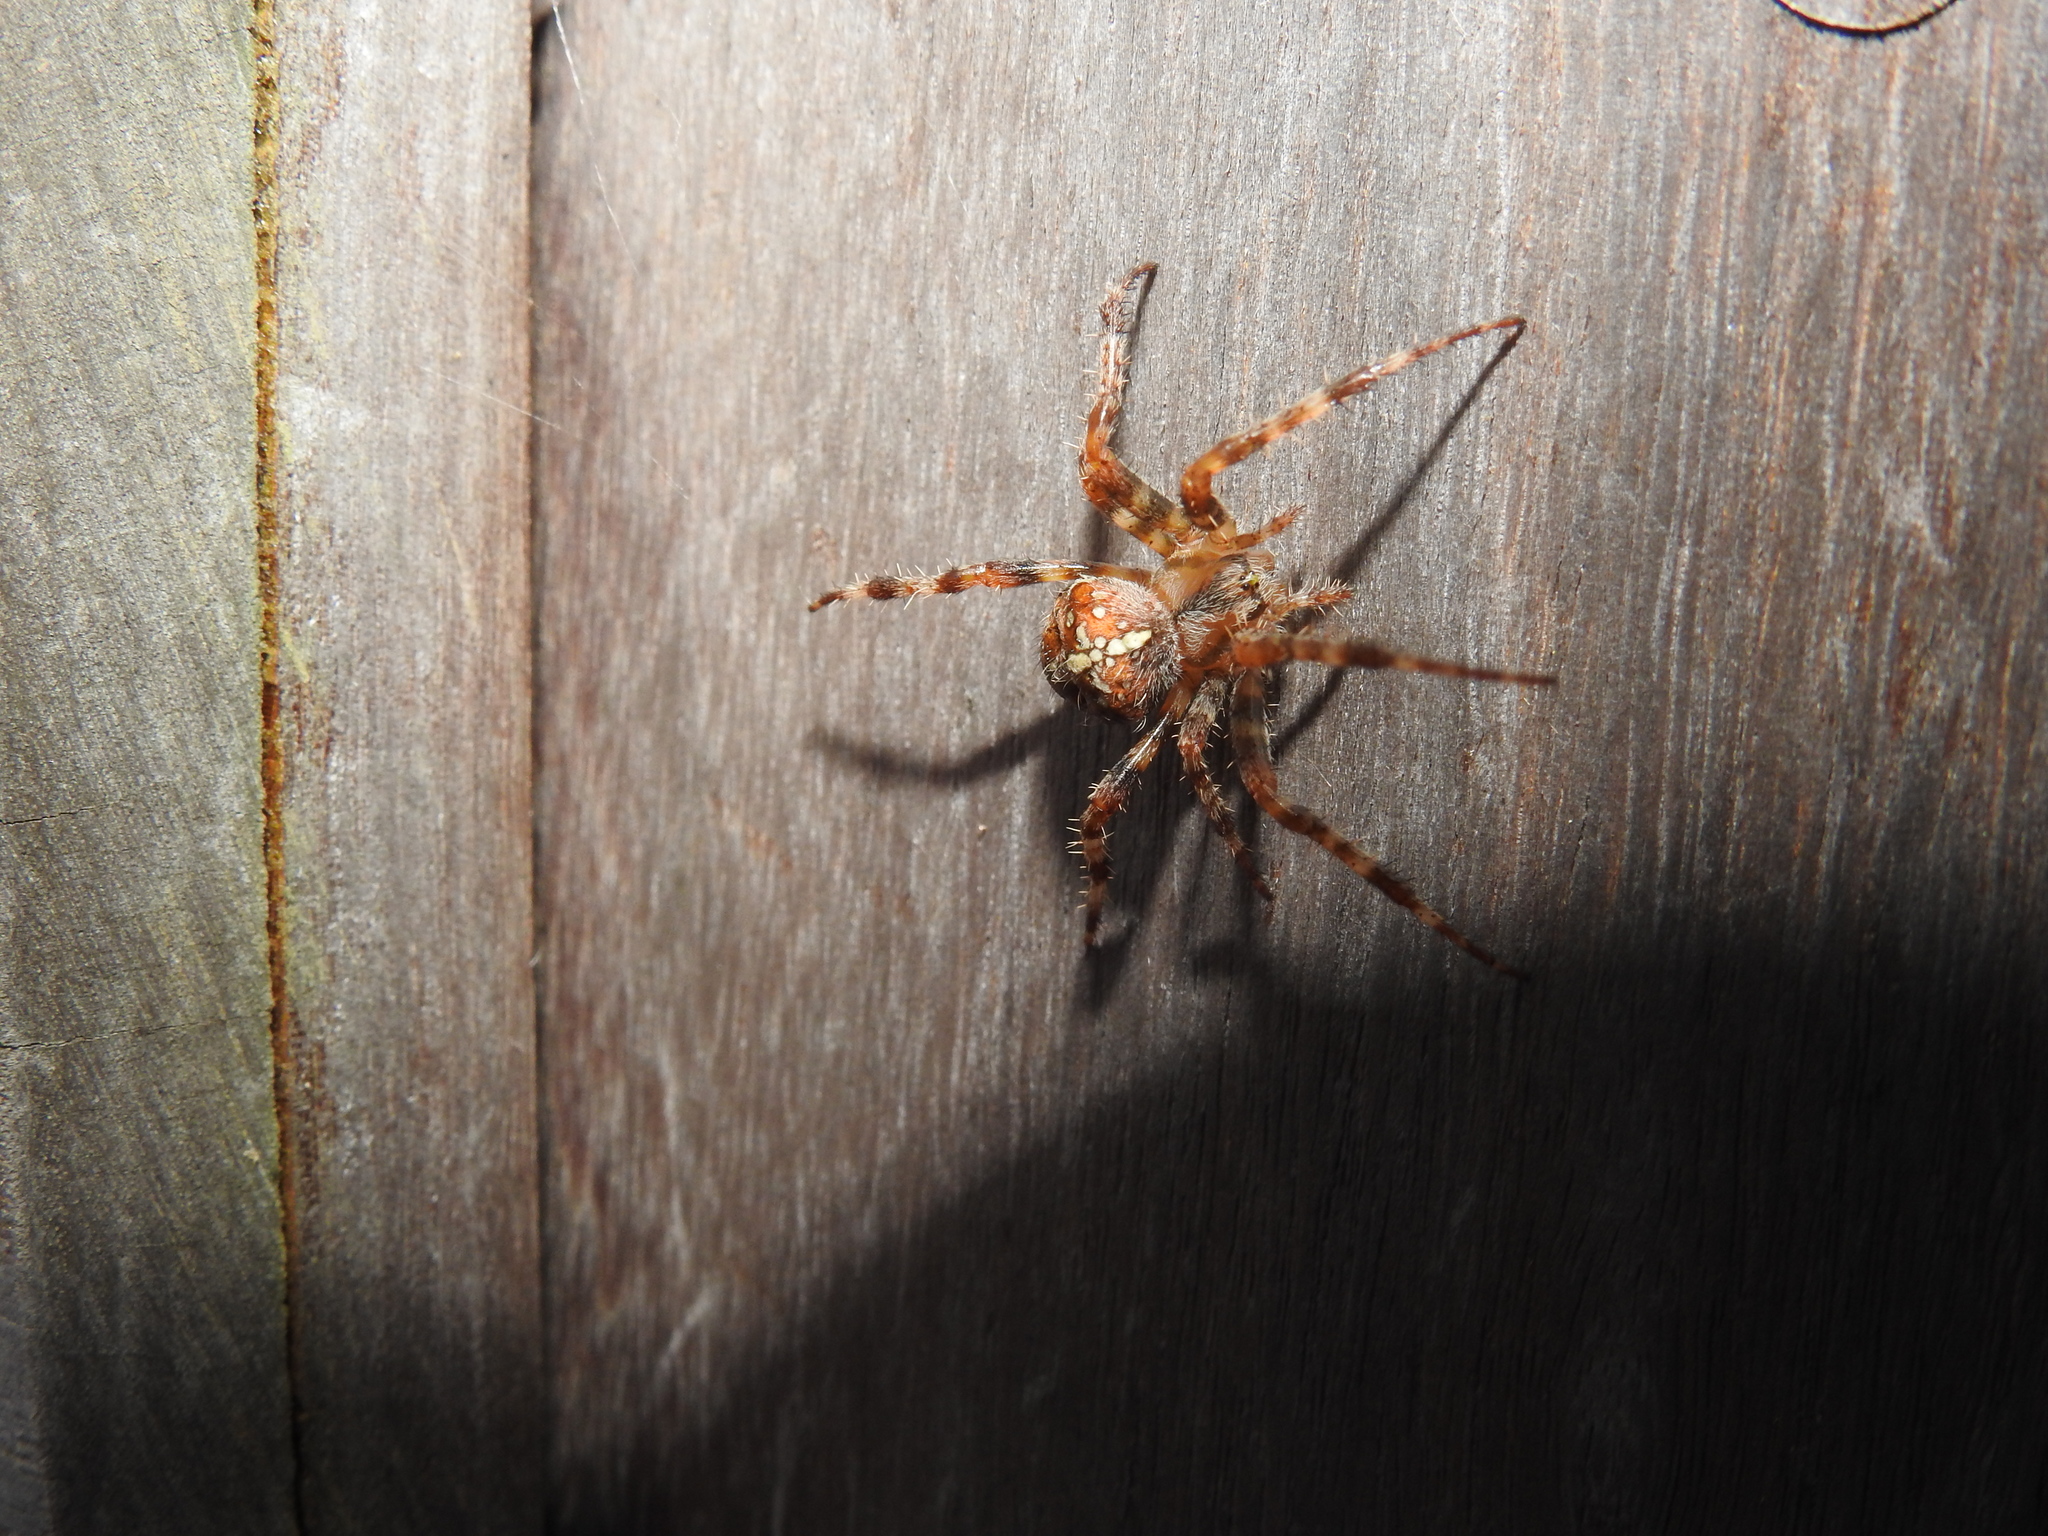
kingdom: Animalia
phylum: Arthropoda
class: Arachnida
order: Araneae
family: Araneidae
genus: Araneus
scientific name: Araneus diadematus
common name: Cross orbweaver
